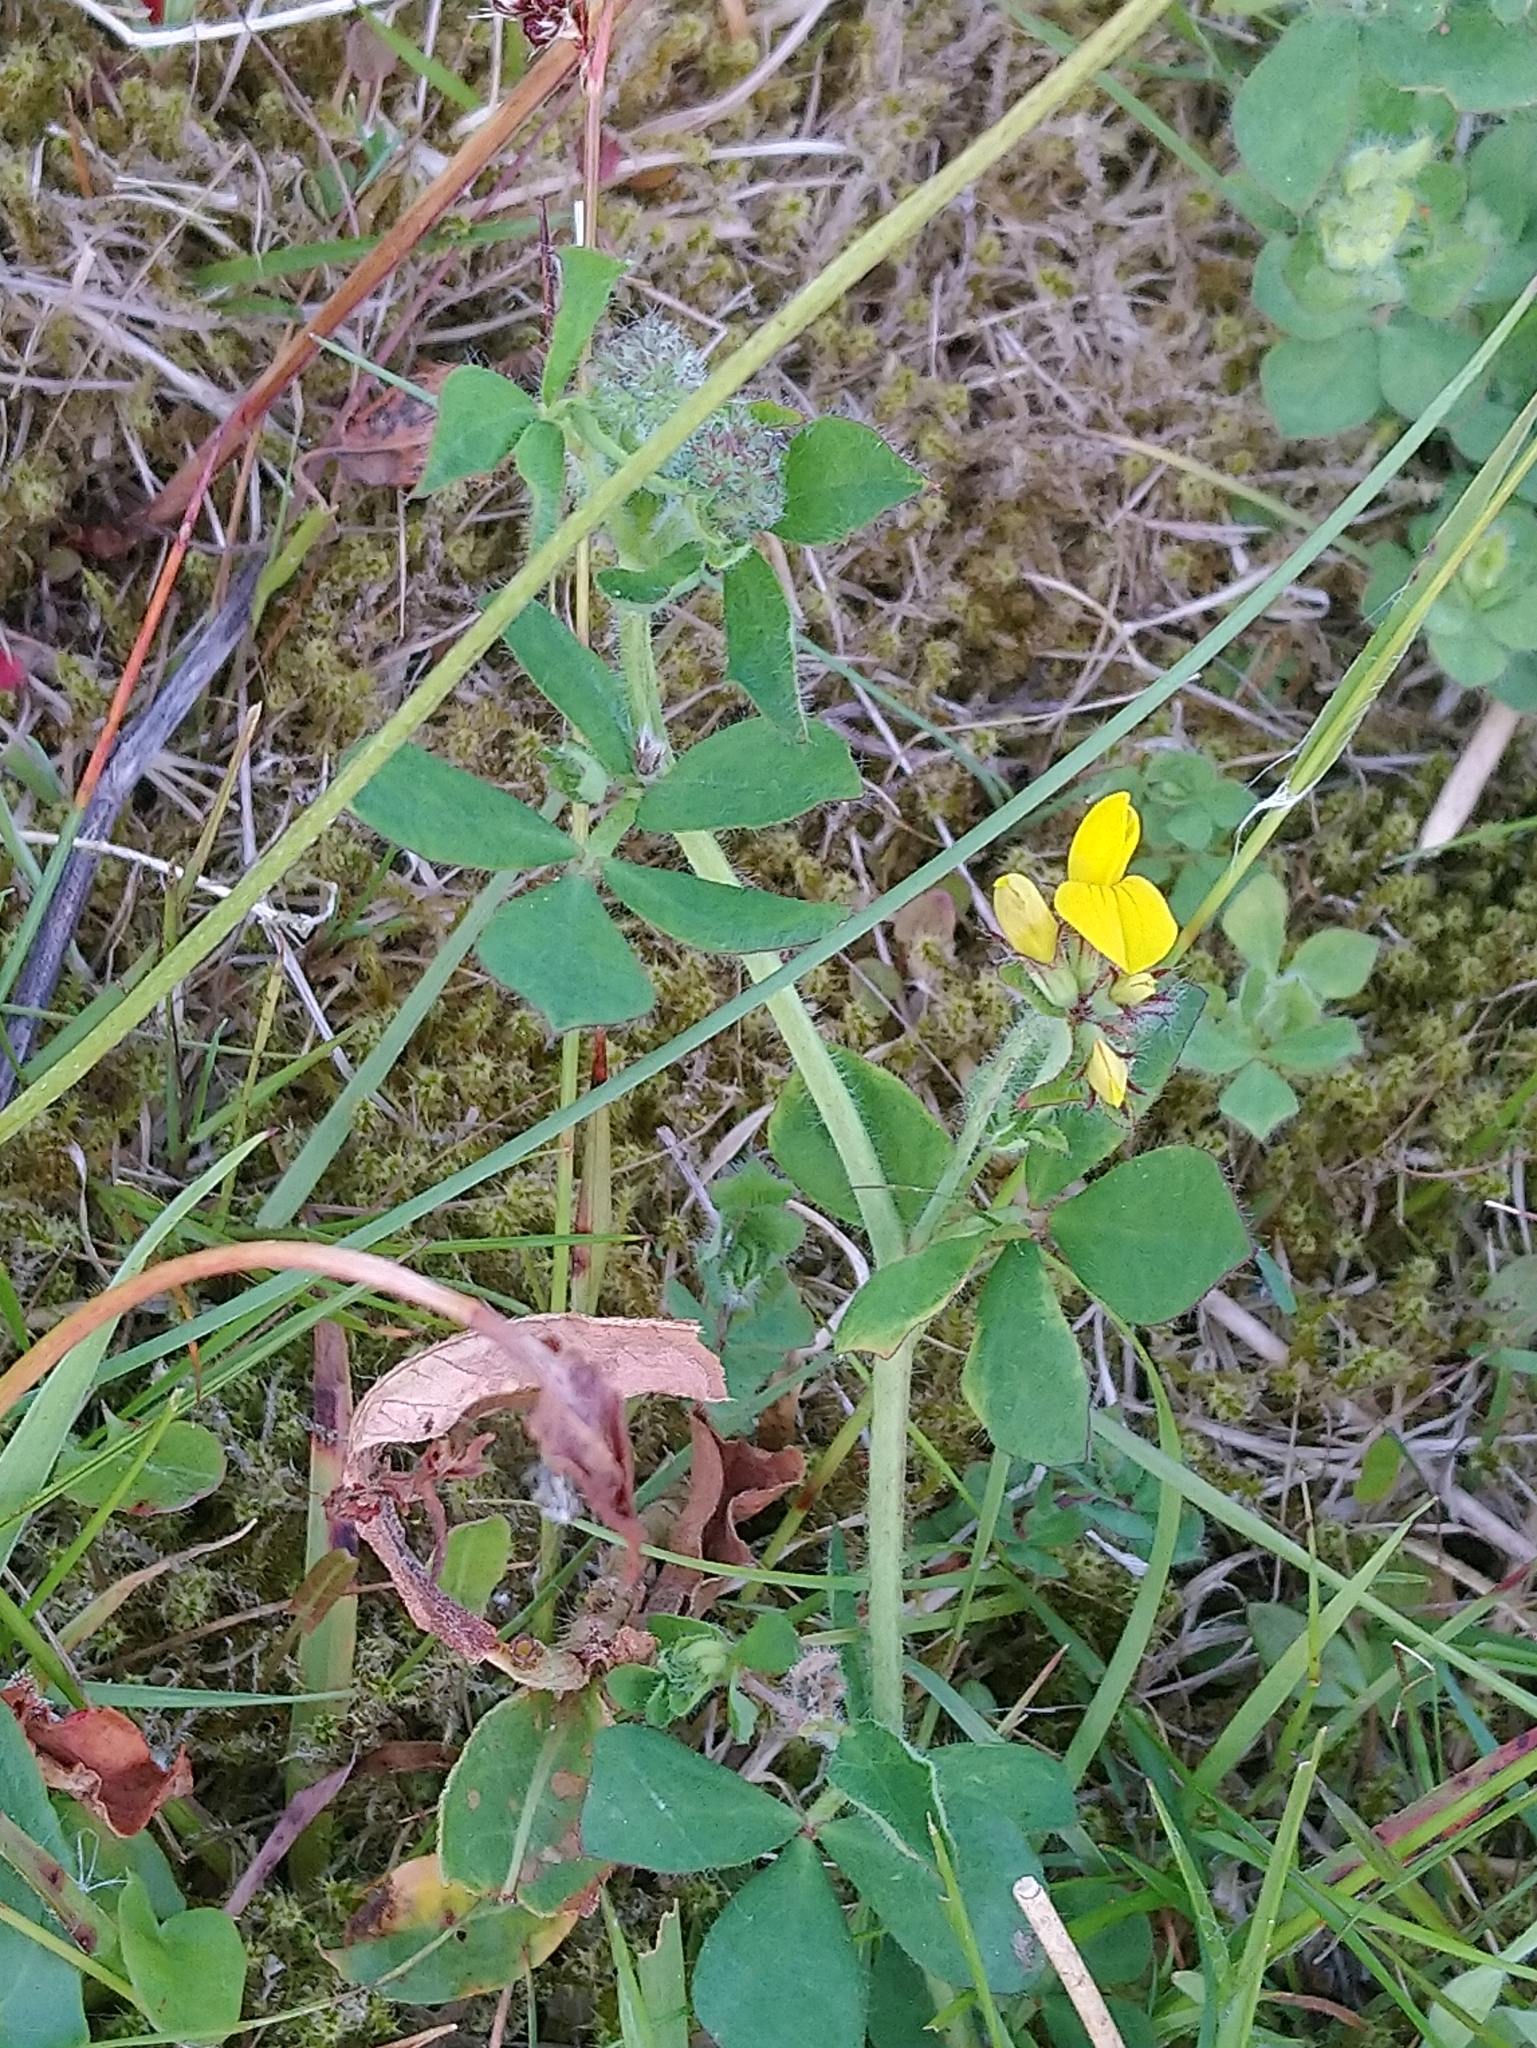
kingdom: Plantae
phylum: Tracheophyta
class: Magnoliopsida
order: Fabales
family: Fabaceae
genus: Lotus
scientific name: Lotus pedunculatus
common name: Greater birdsfoot-trefoil
